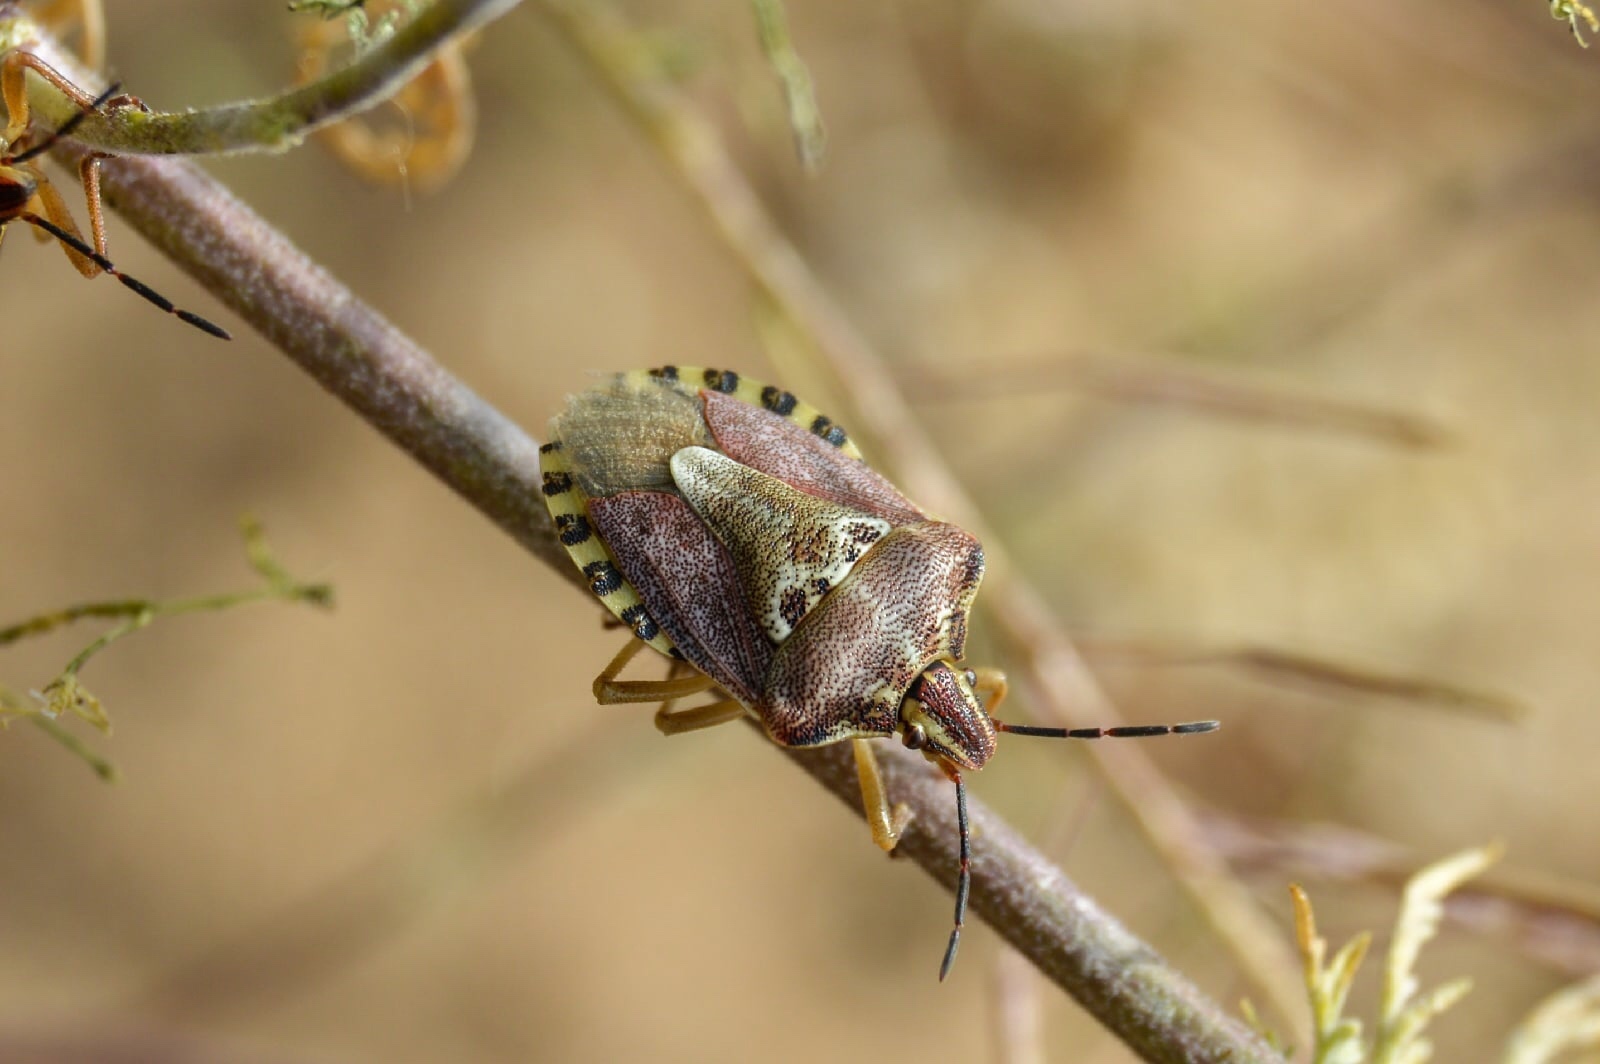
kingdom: Animalia
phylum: Arthropoda
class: Insecta
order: Hemiptera
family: Pentatomidae
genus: Carpocoris
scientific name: Carpocoris purpureipennis
